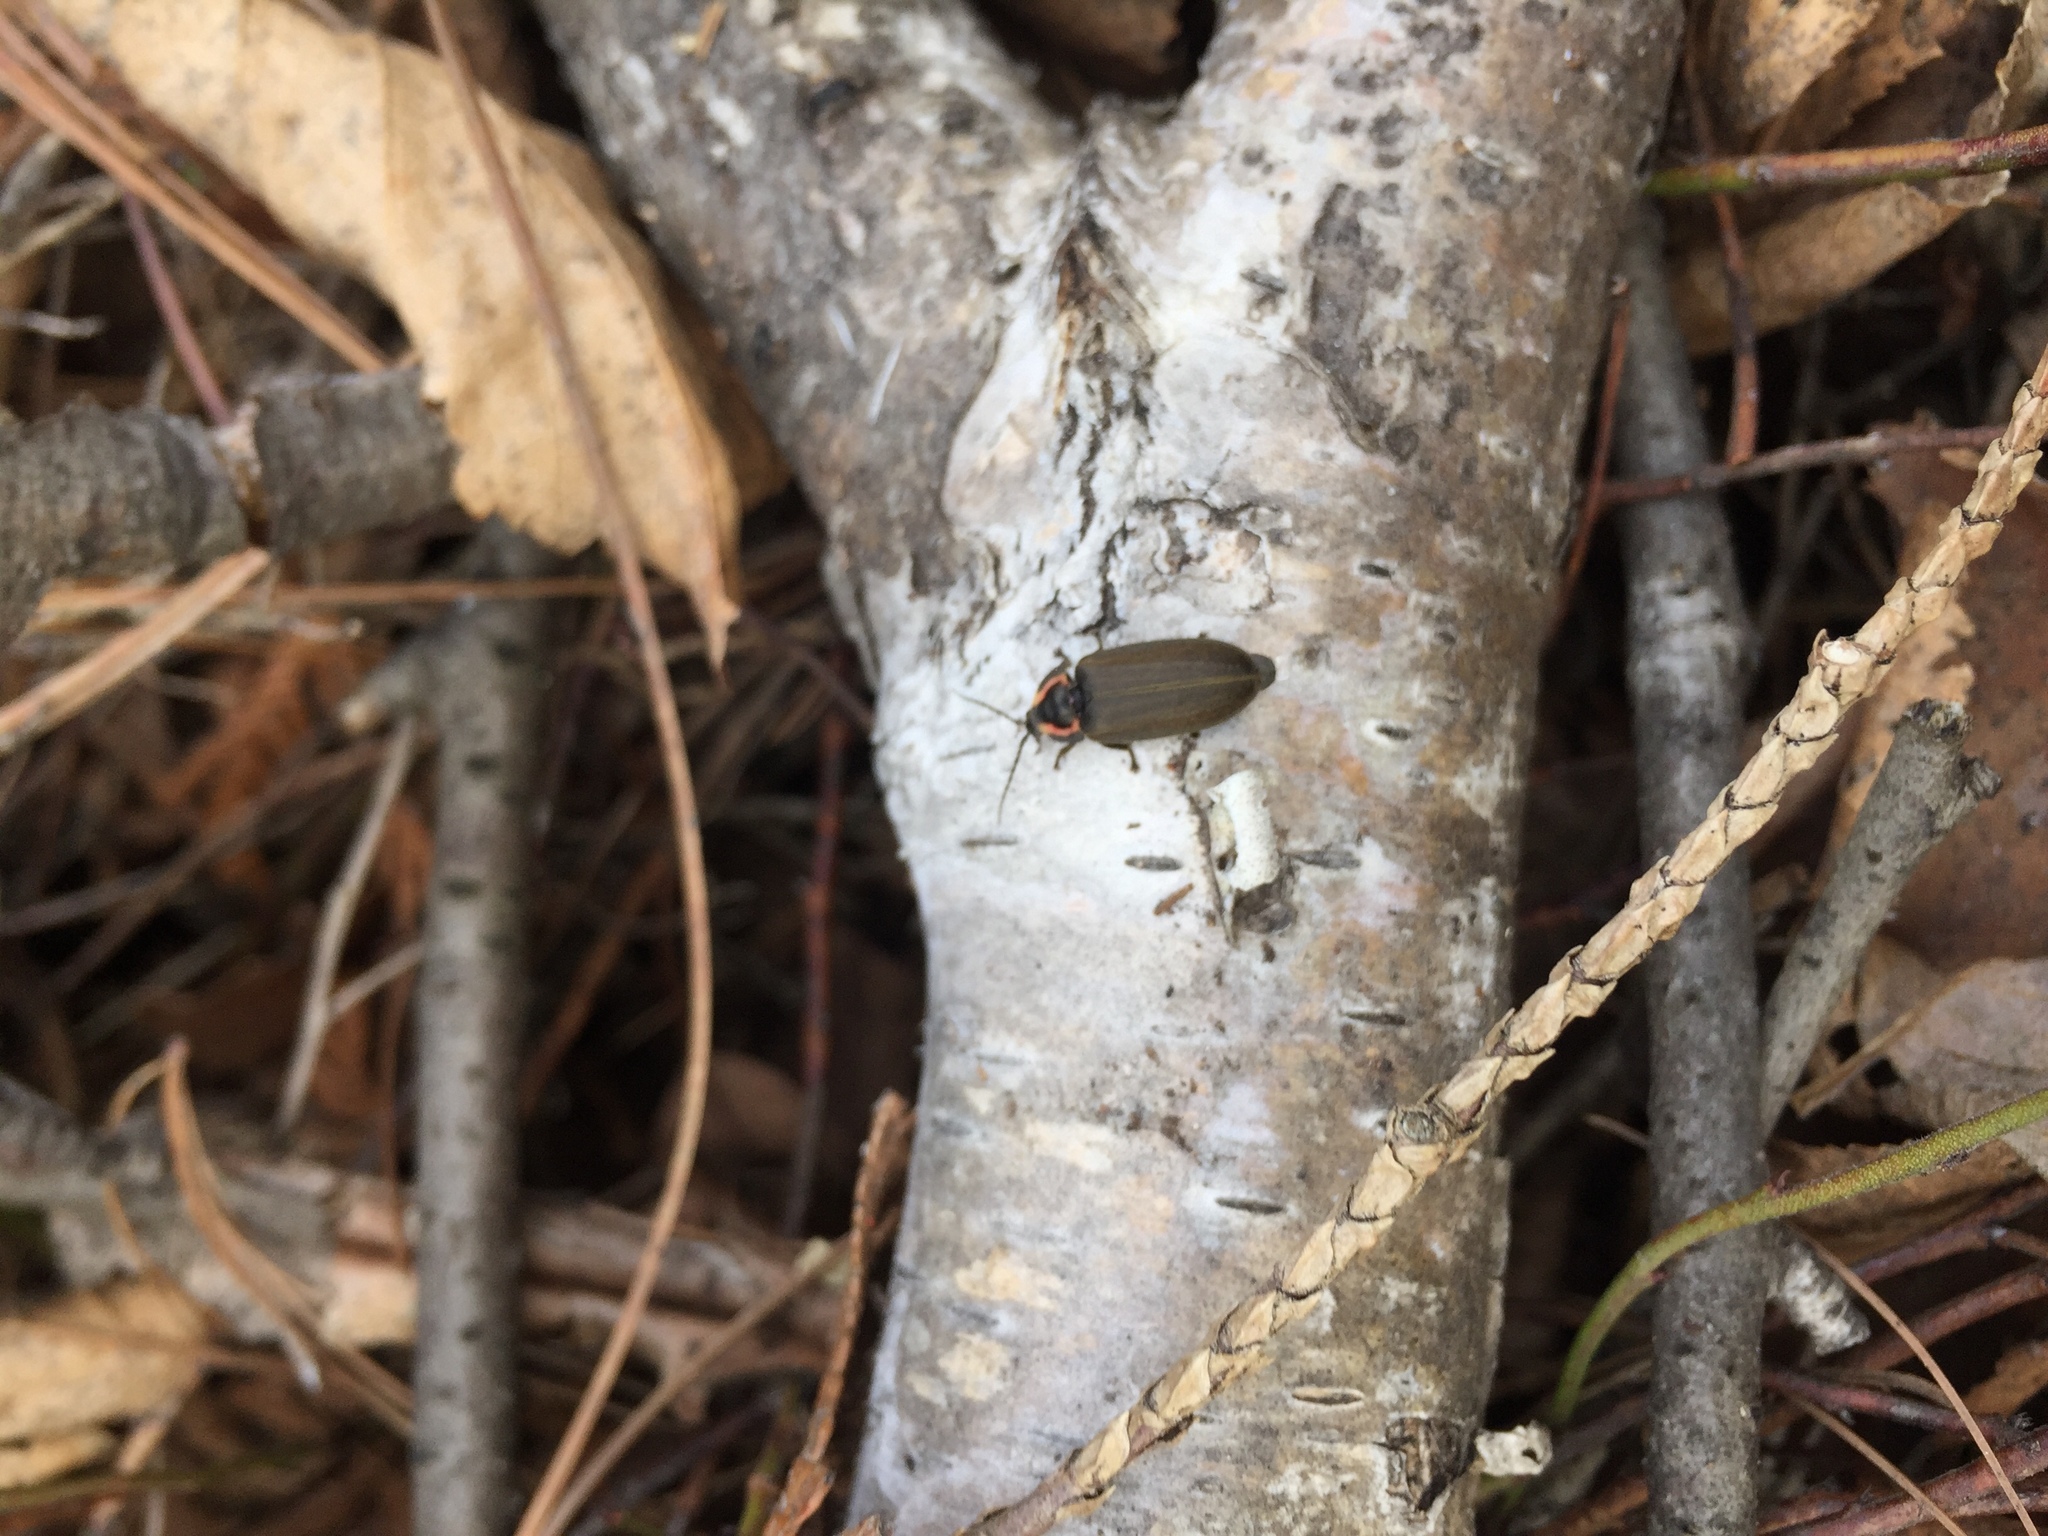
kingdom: Animalia
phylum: Arthropoda
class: Insecta
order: Coleoptera
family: Lampyridae
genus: Photinus
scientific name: Photinus corrusca
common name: Winter firefly
